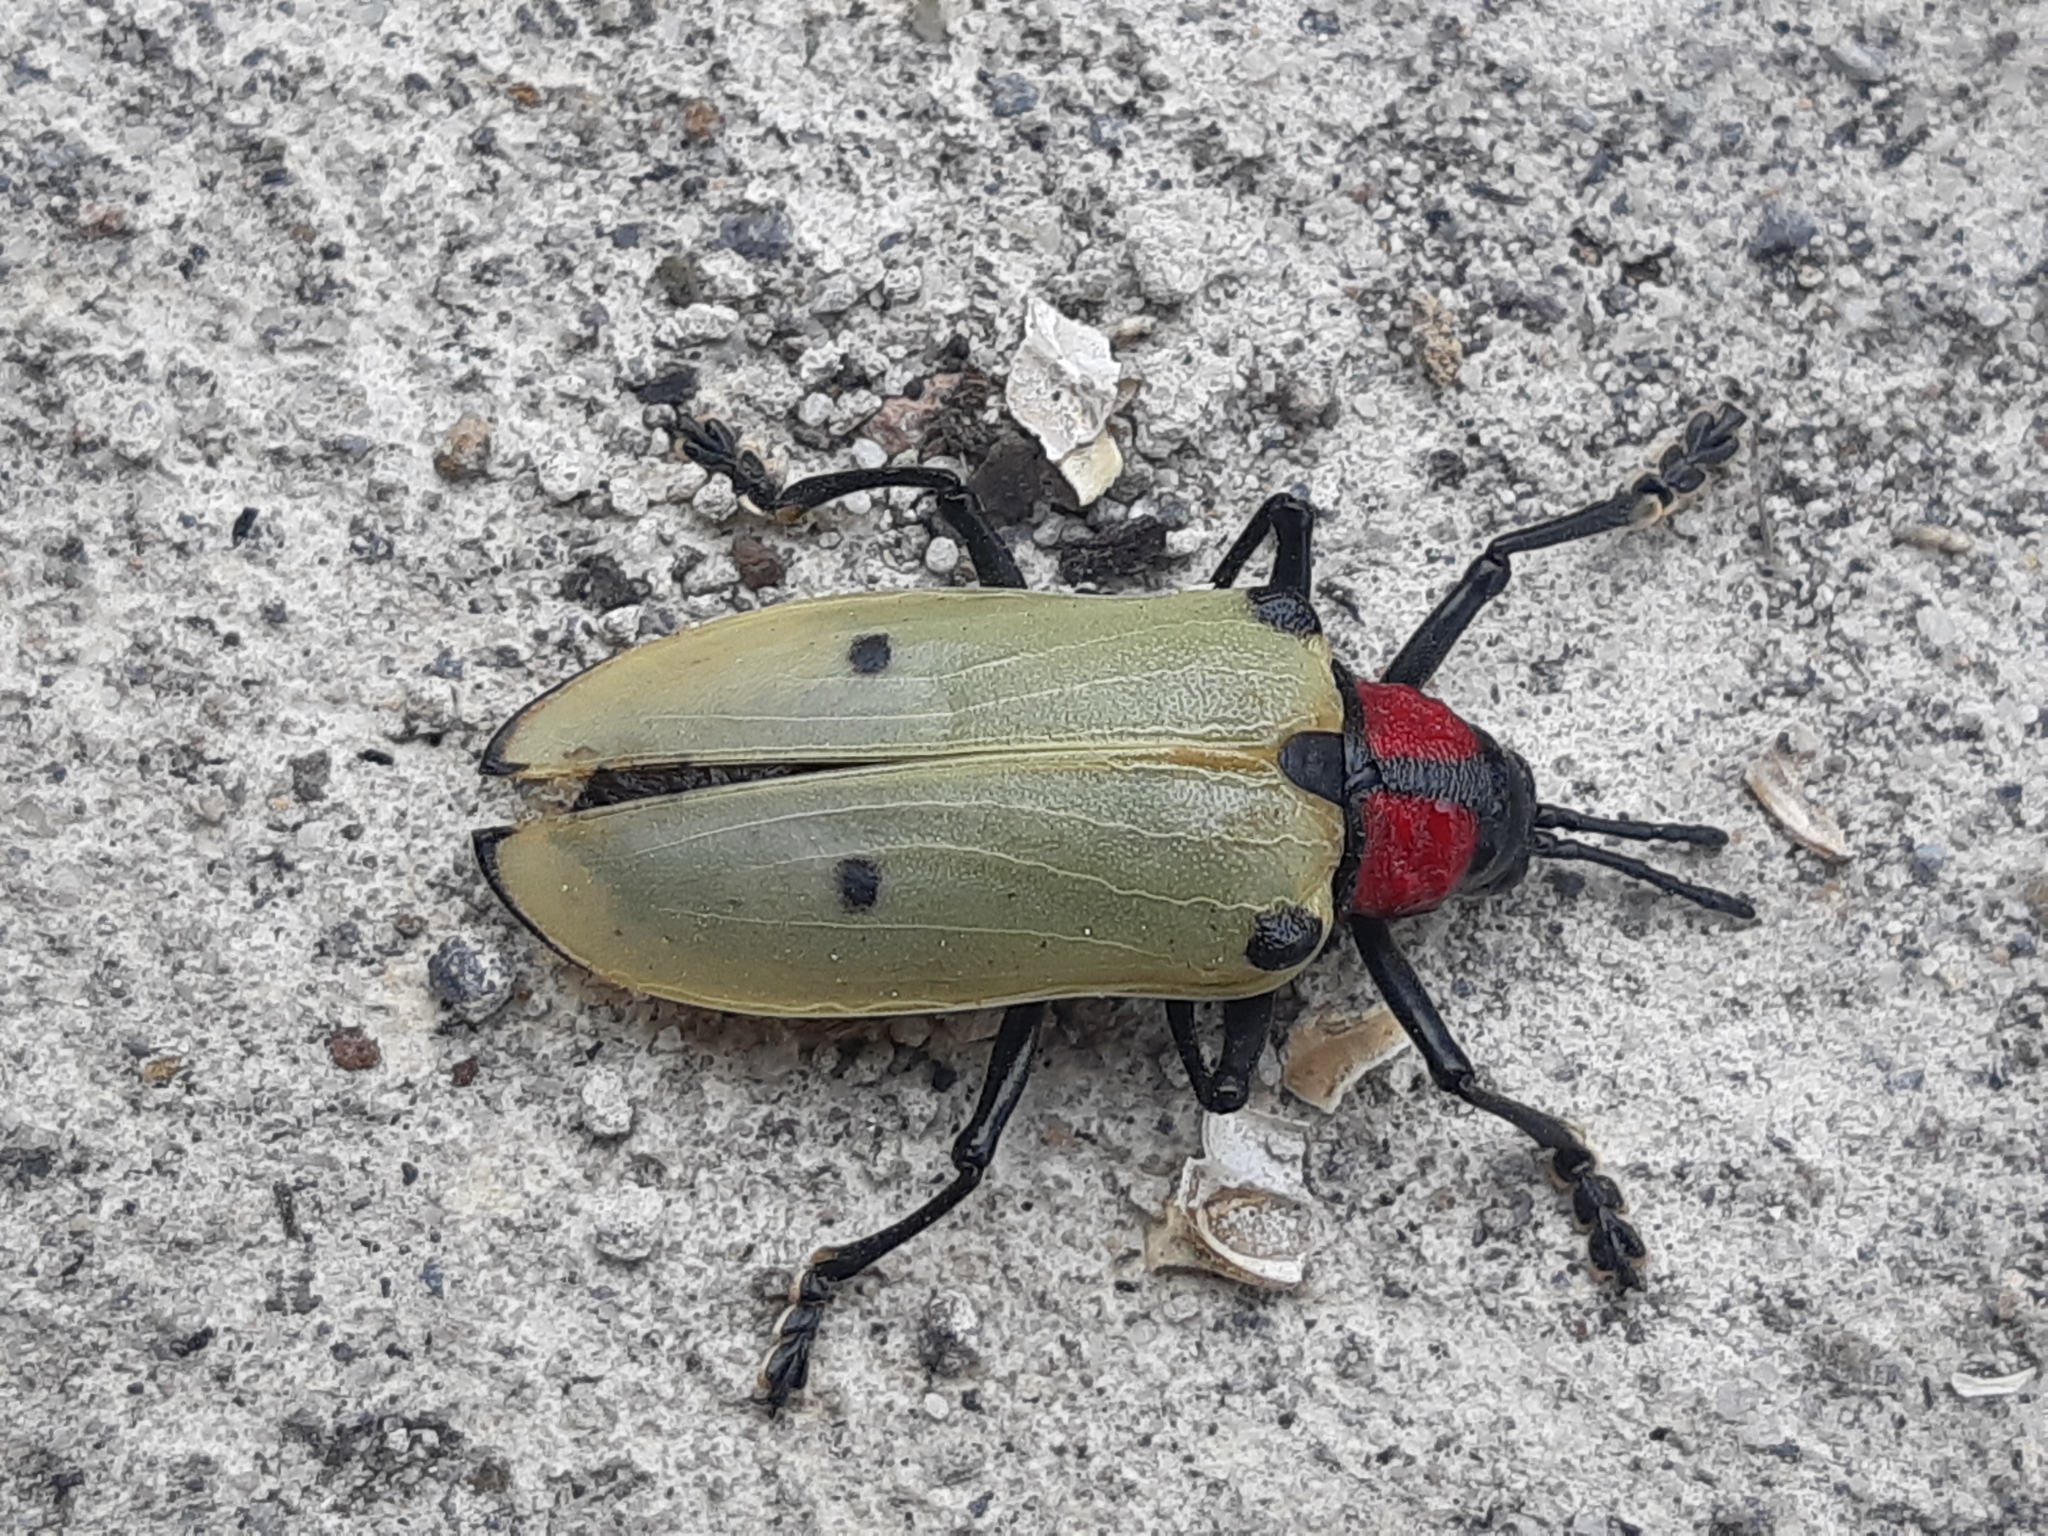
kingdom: Animalia
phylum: Arthropoda
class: Insecta
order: Coleoptera
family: Chrysomelidae
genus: Alurnus
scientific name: Alurnus humeralis
